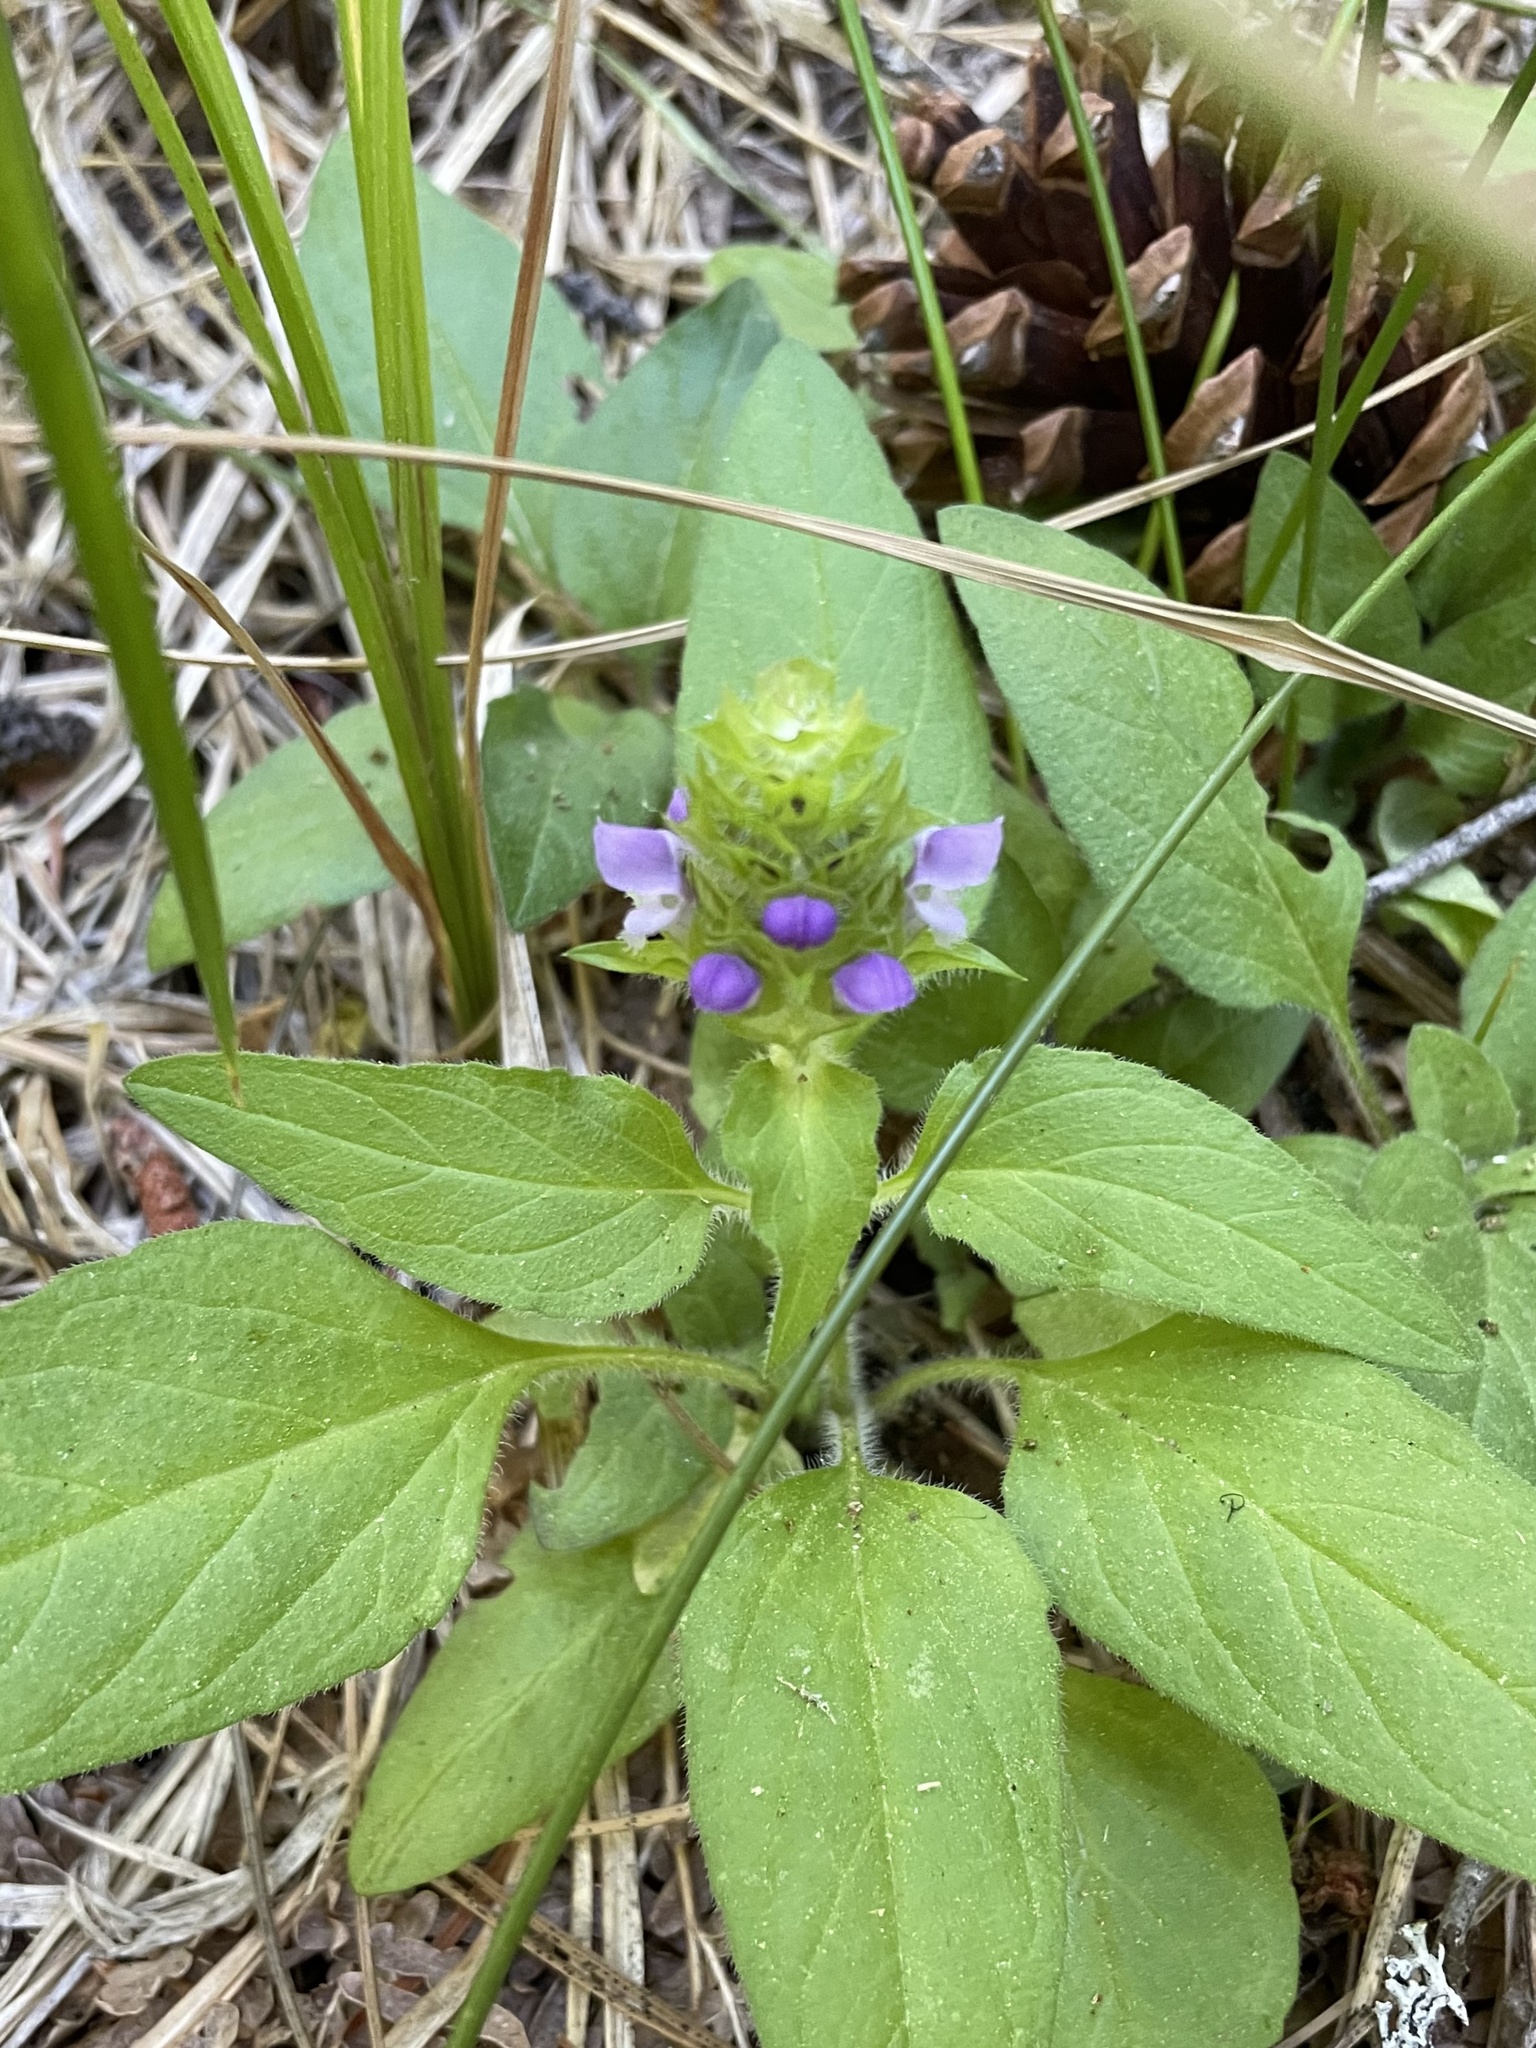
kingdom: Plantae
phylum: Tracheophyta
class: Magnoliopsida
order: Lamiales
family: Lamiaceae
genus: Prunella
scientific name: Prunella vulgaris
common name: Heal-all
